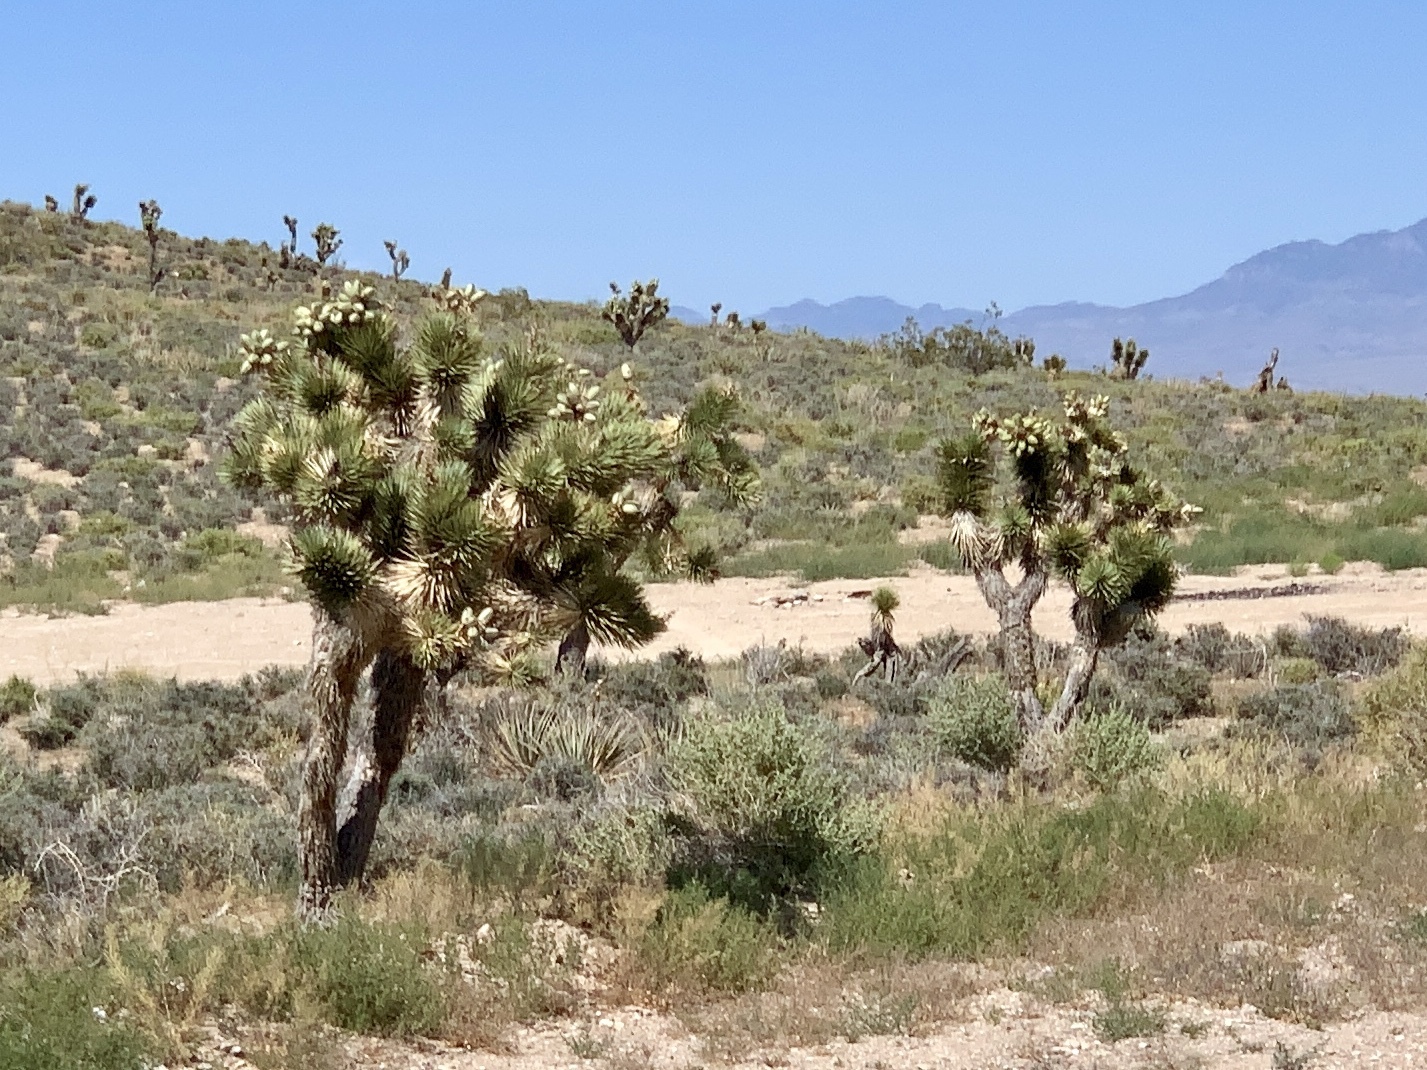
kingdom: Plantae
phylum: Tracheophyta
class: Liliopsida
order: Asparagales
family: Asparagaceae
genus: Yucca
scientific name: Yucca brevifolia
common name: Joshua tree
